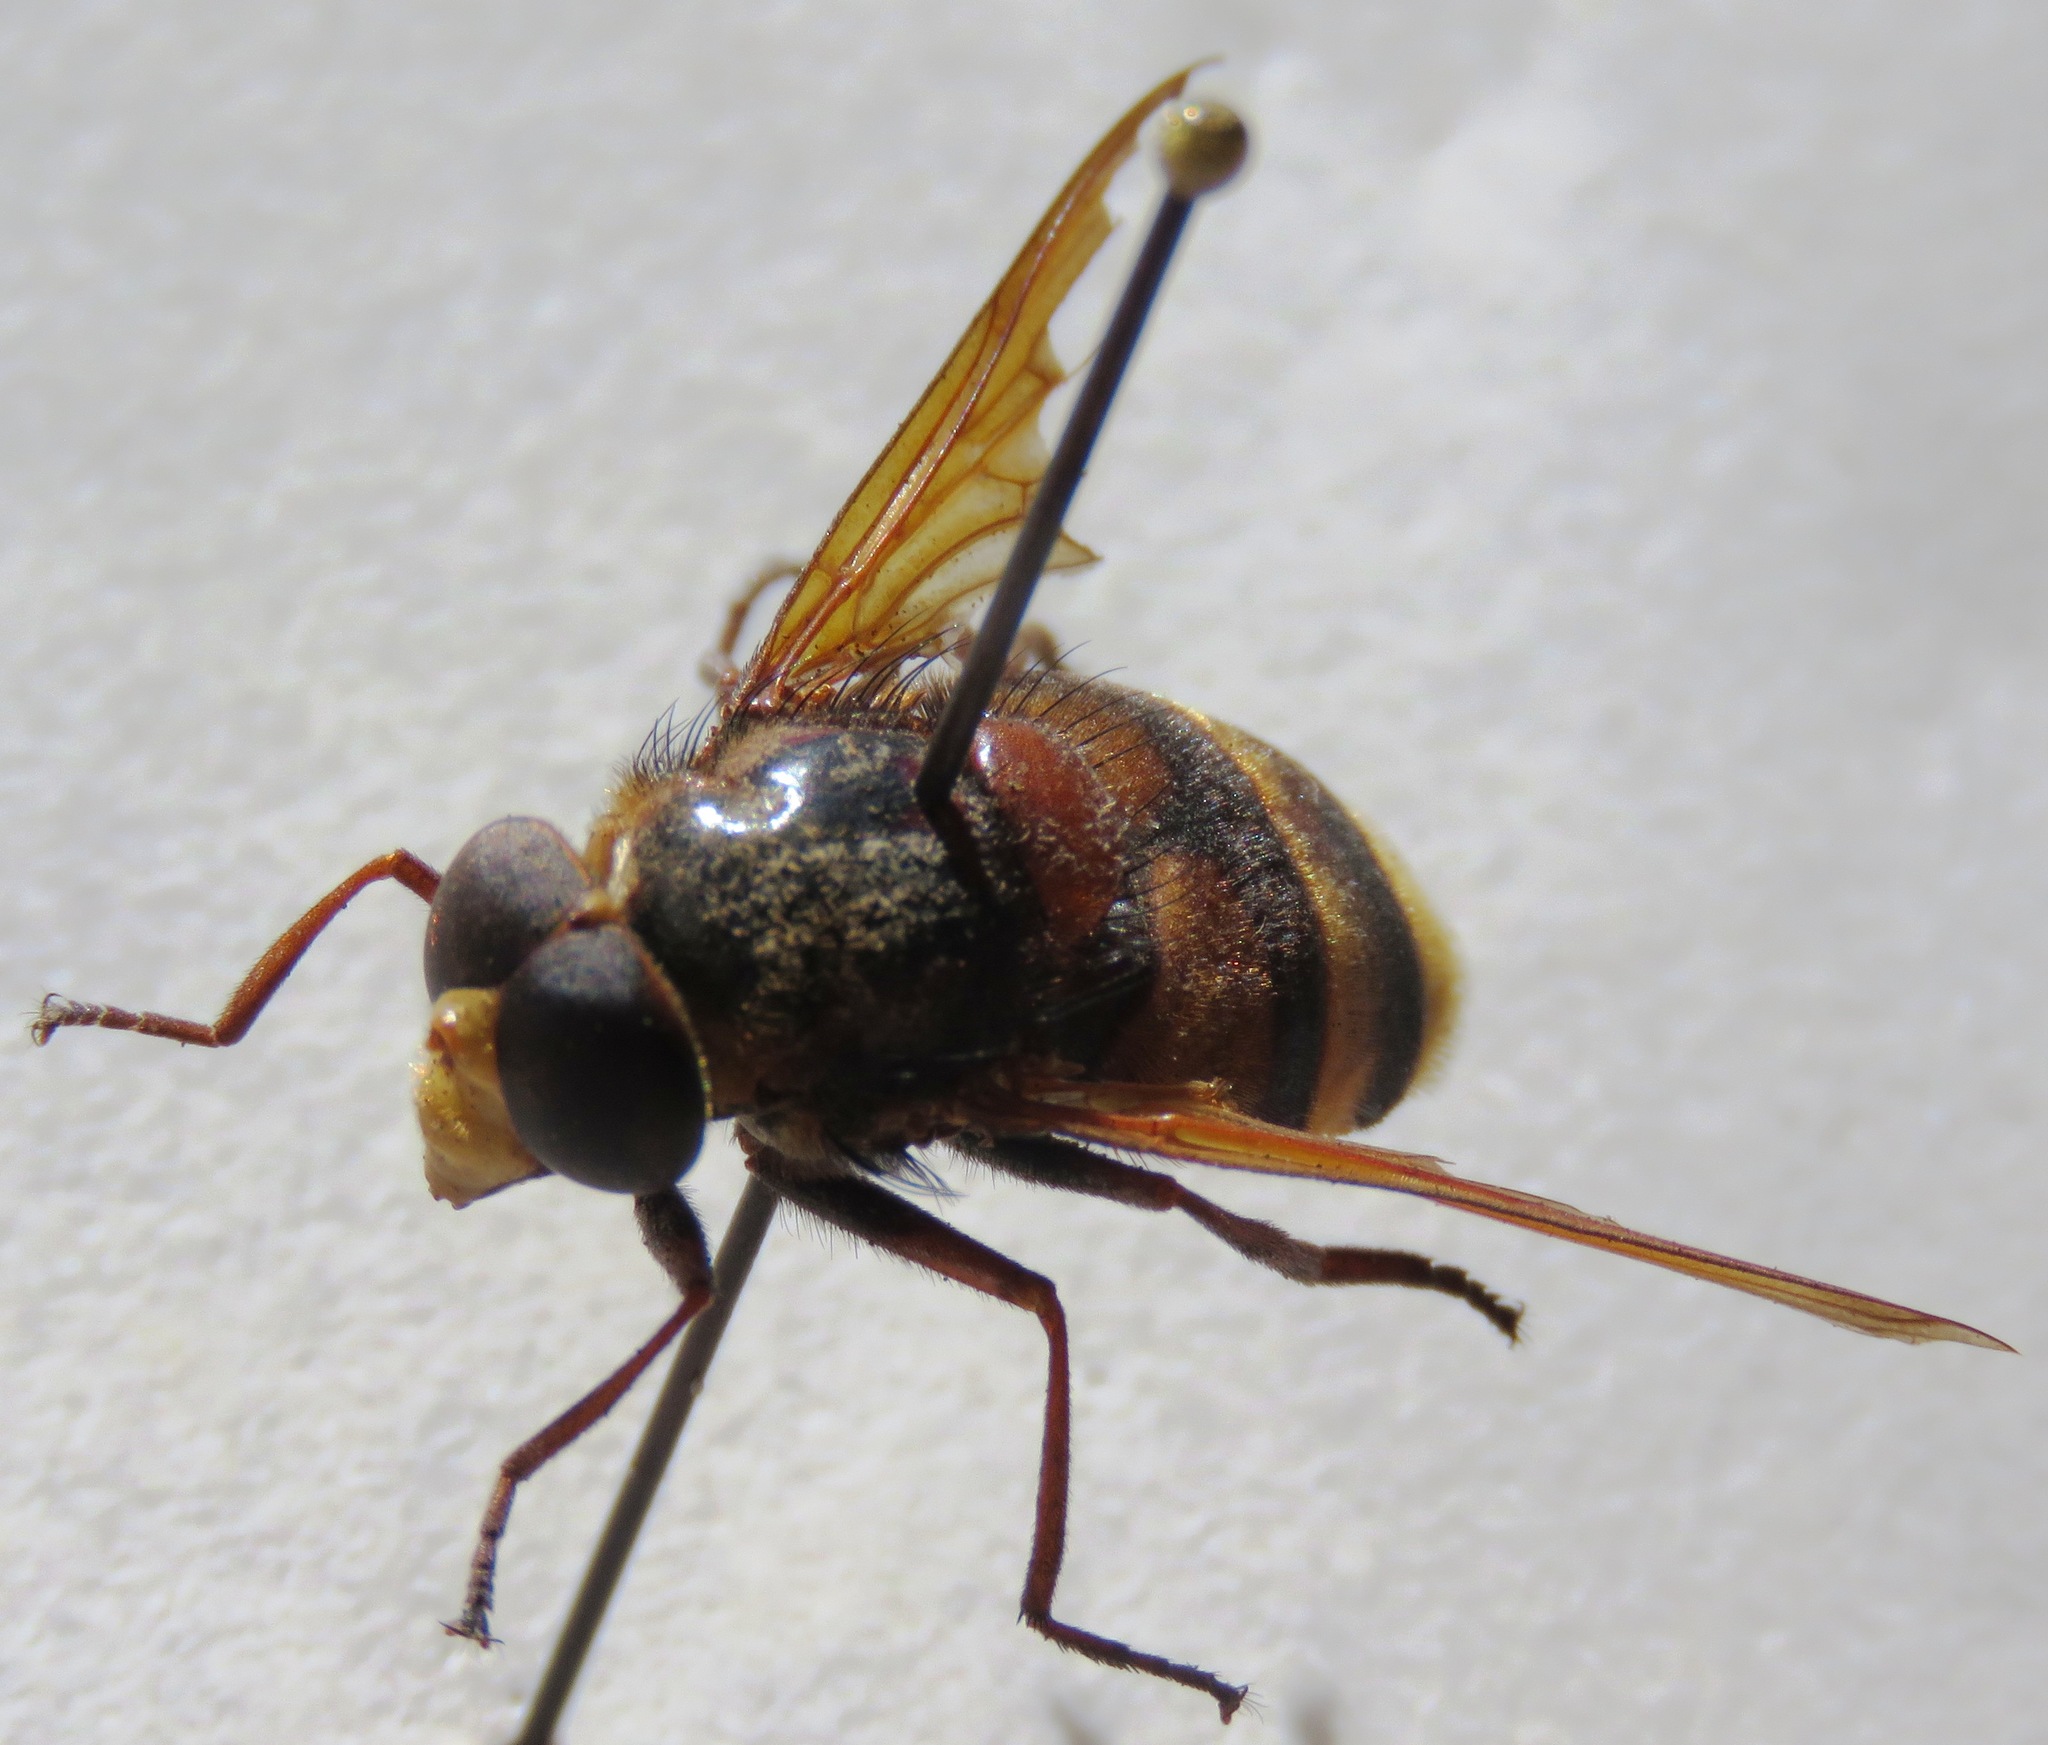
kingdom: Animalia
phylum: Arthropoda
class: Insecta
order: Diptera
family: Syrphidae
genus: Volucella
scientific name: Volucella zonaria
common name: Hornet hoverfly
